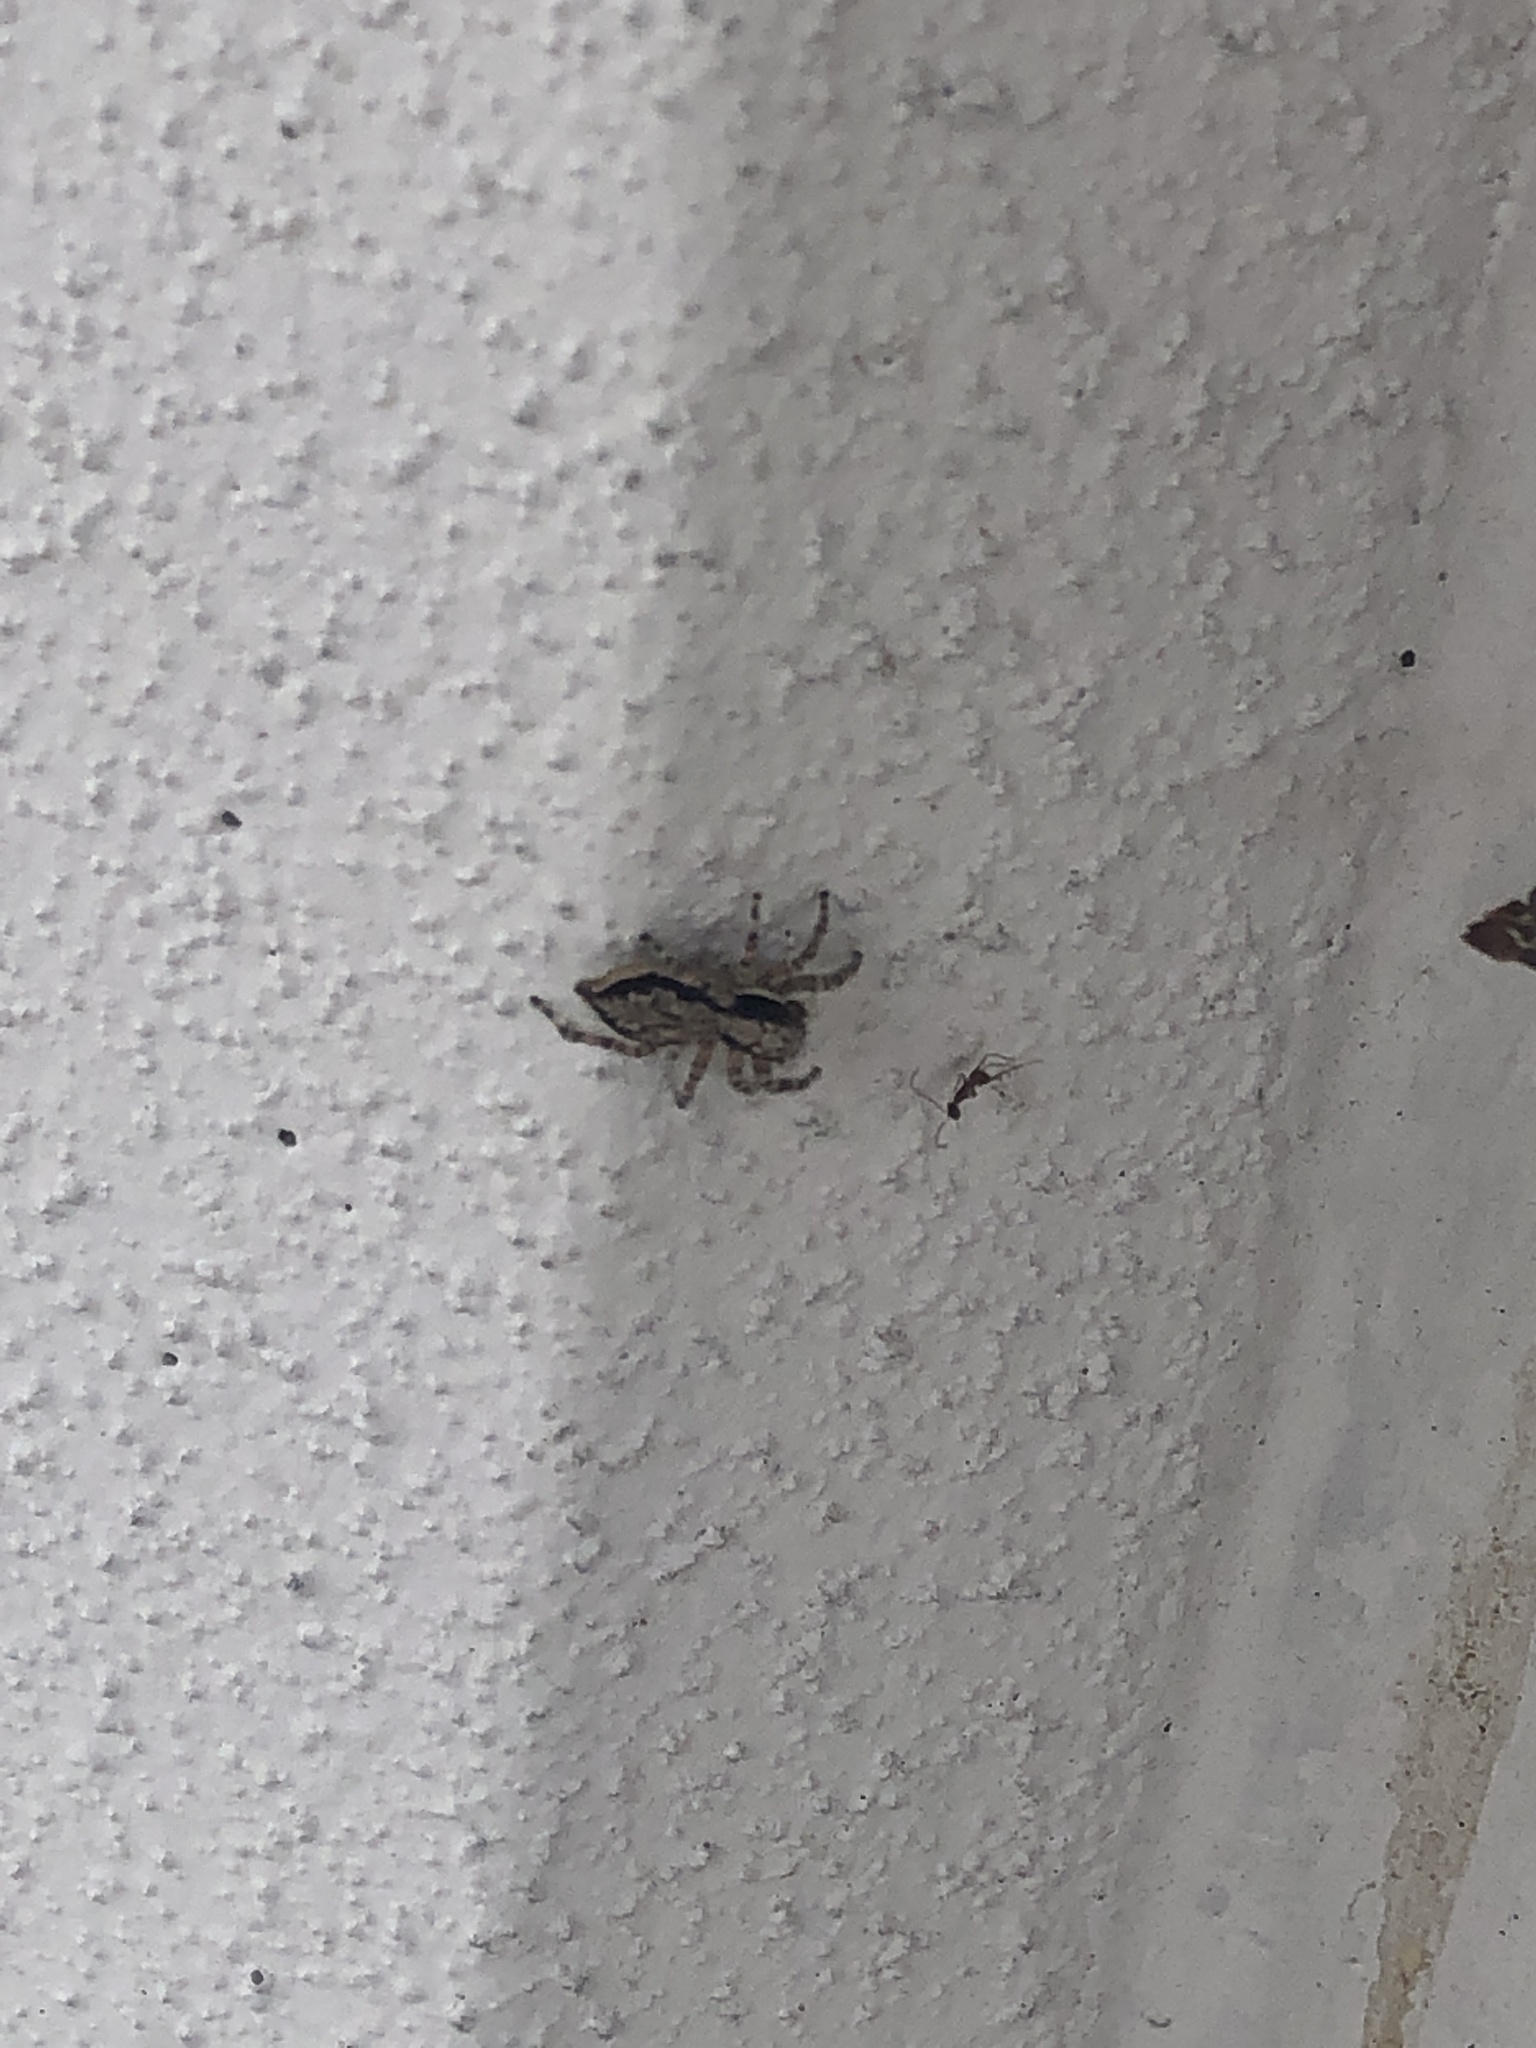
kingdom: Animalia
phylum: Arthropoda
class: Arachnida
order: Araneae
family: Salticidae
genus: Menemerus
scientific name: Menemerus bivittatus
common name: Gray wall jumper
